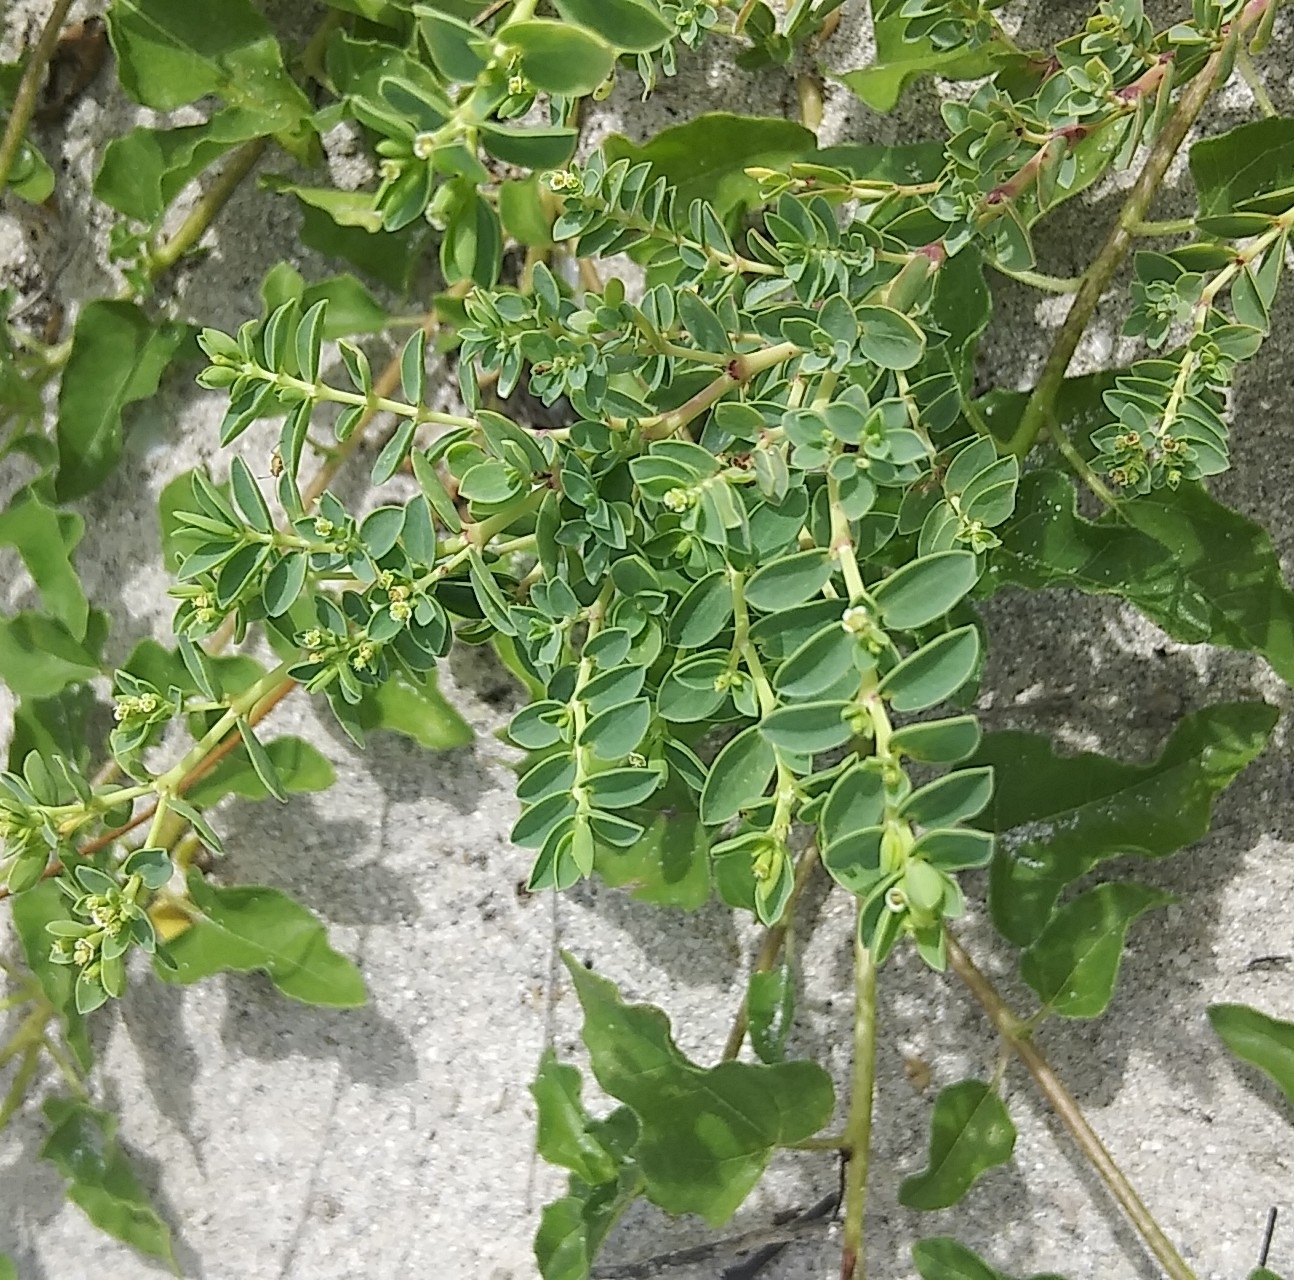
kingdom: Plantae
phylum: Tracheophyta
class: Magnoliopsida
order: Malpighiales
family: Euphorbiaceae
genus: Euphorbia
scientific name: Euphorbia mesembryanthemifolia
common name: Coastal beach sandmat
